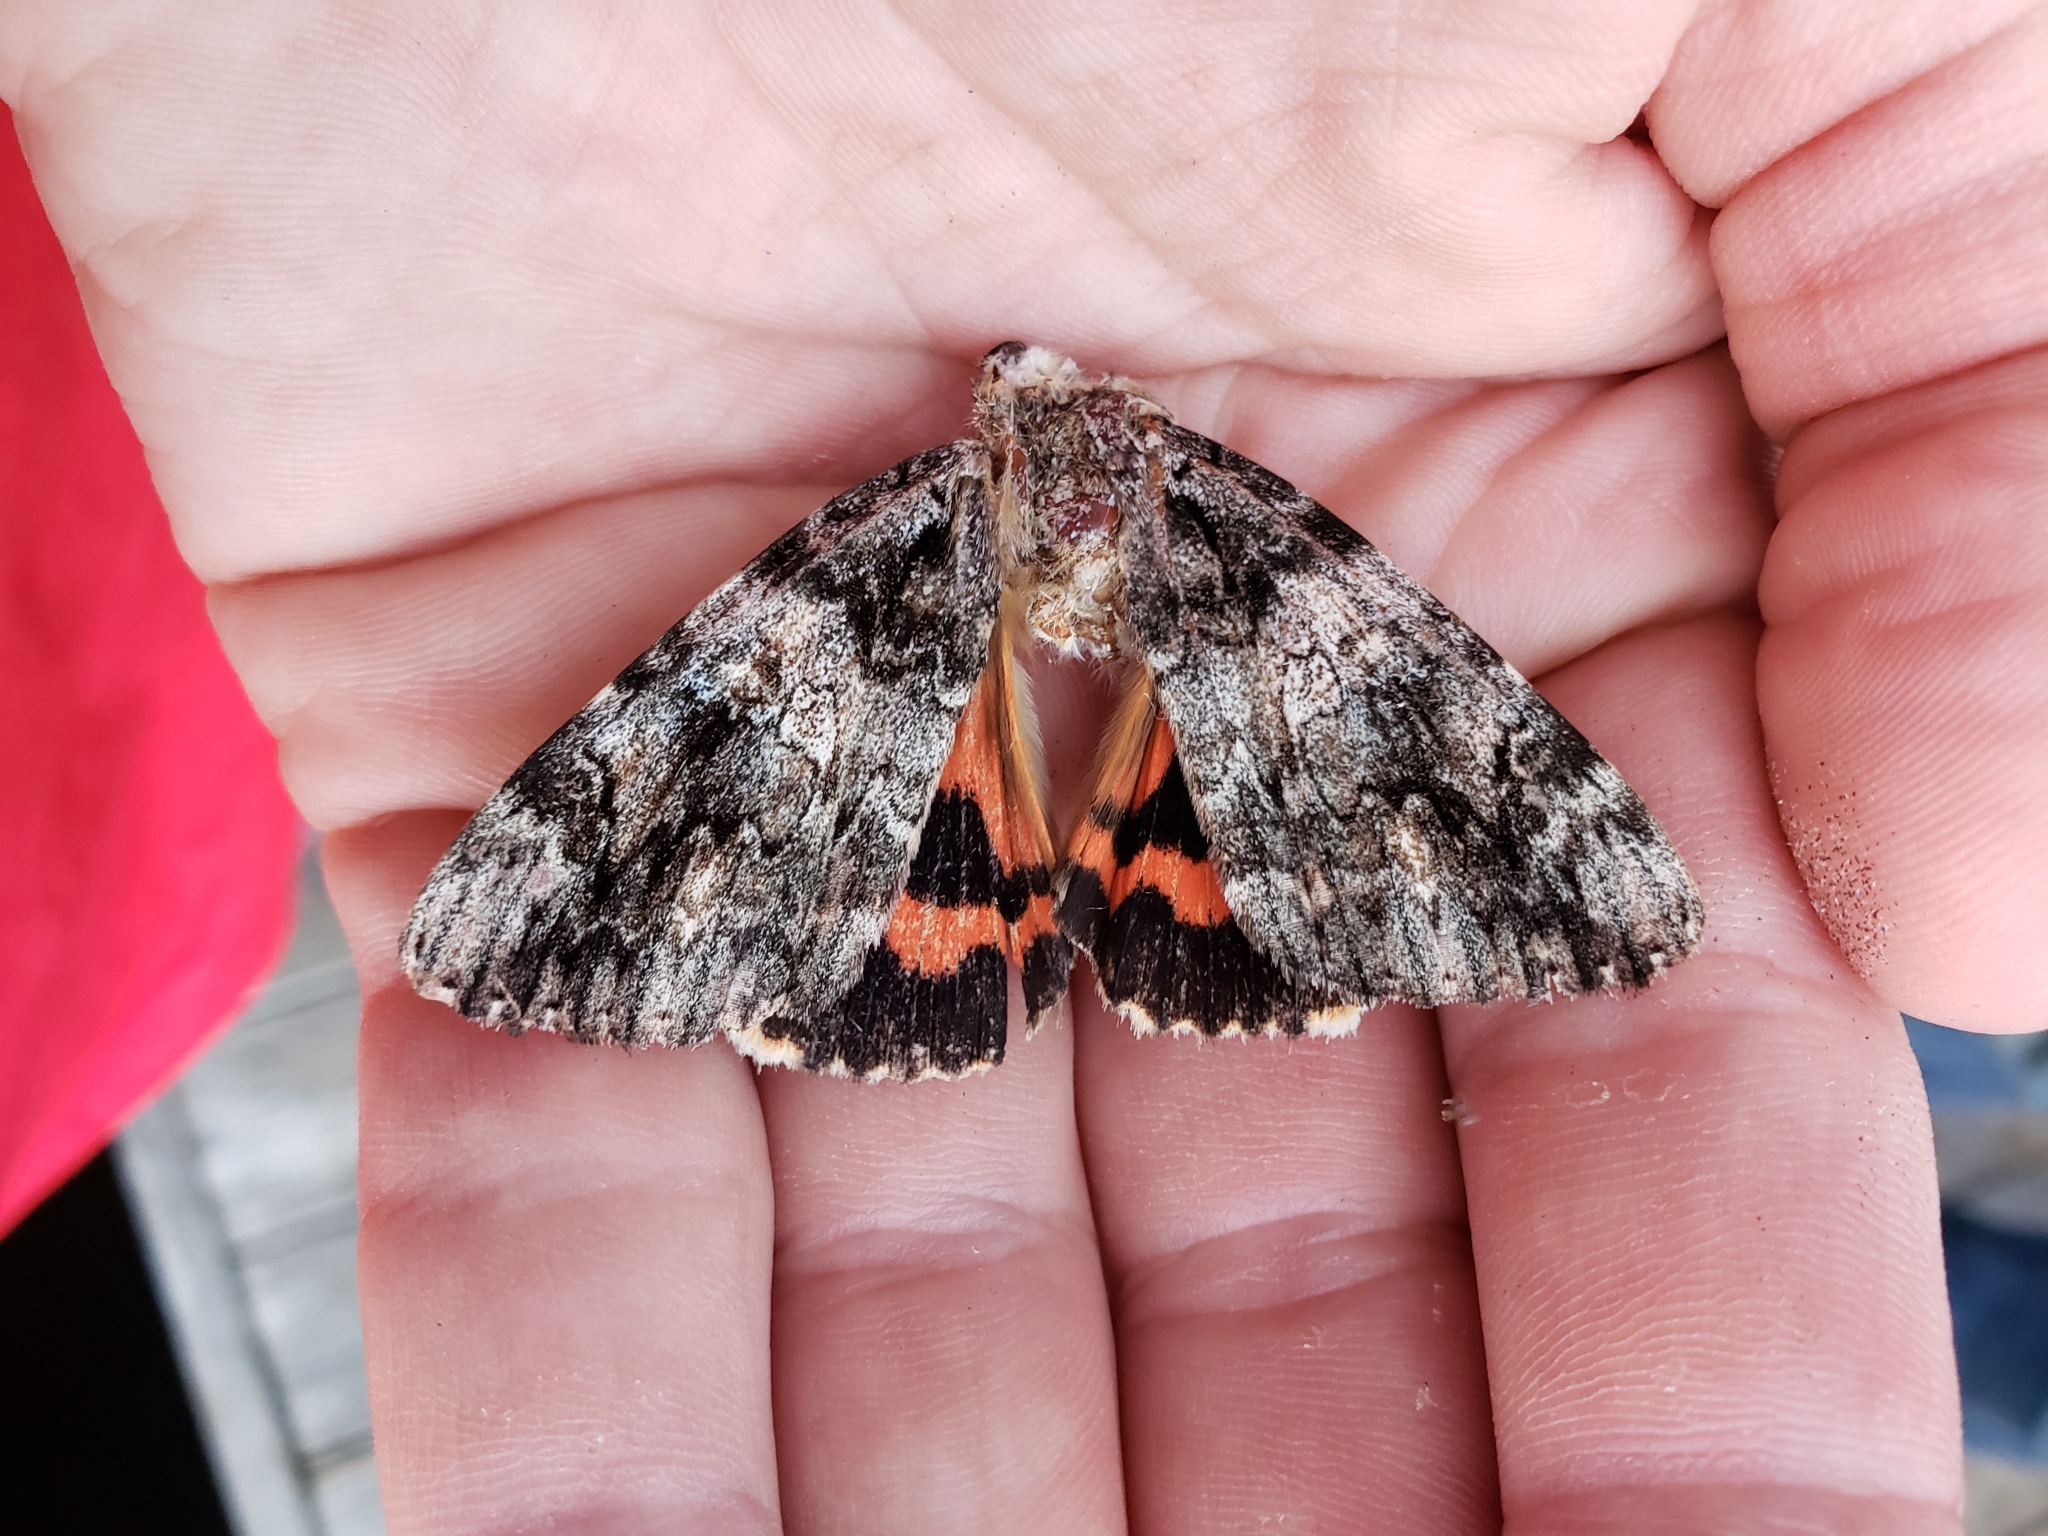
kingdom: Animalia
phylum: Arthropoda
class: Insecta
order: Lepidoptera
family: Erebidae
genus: Catocala
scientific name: Catocala ilia
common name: Ilia underwing
